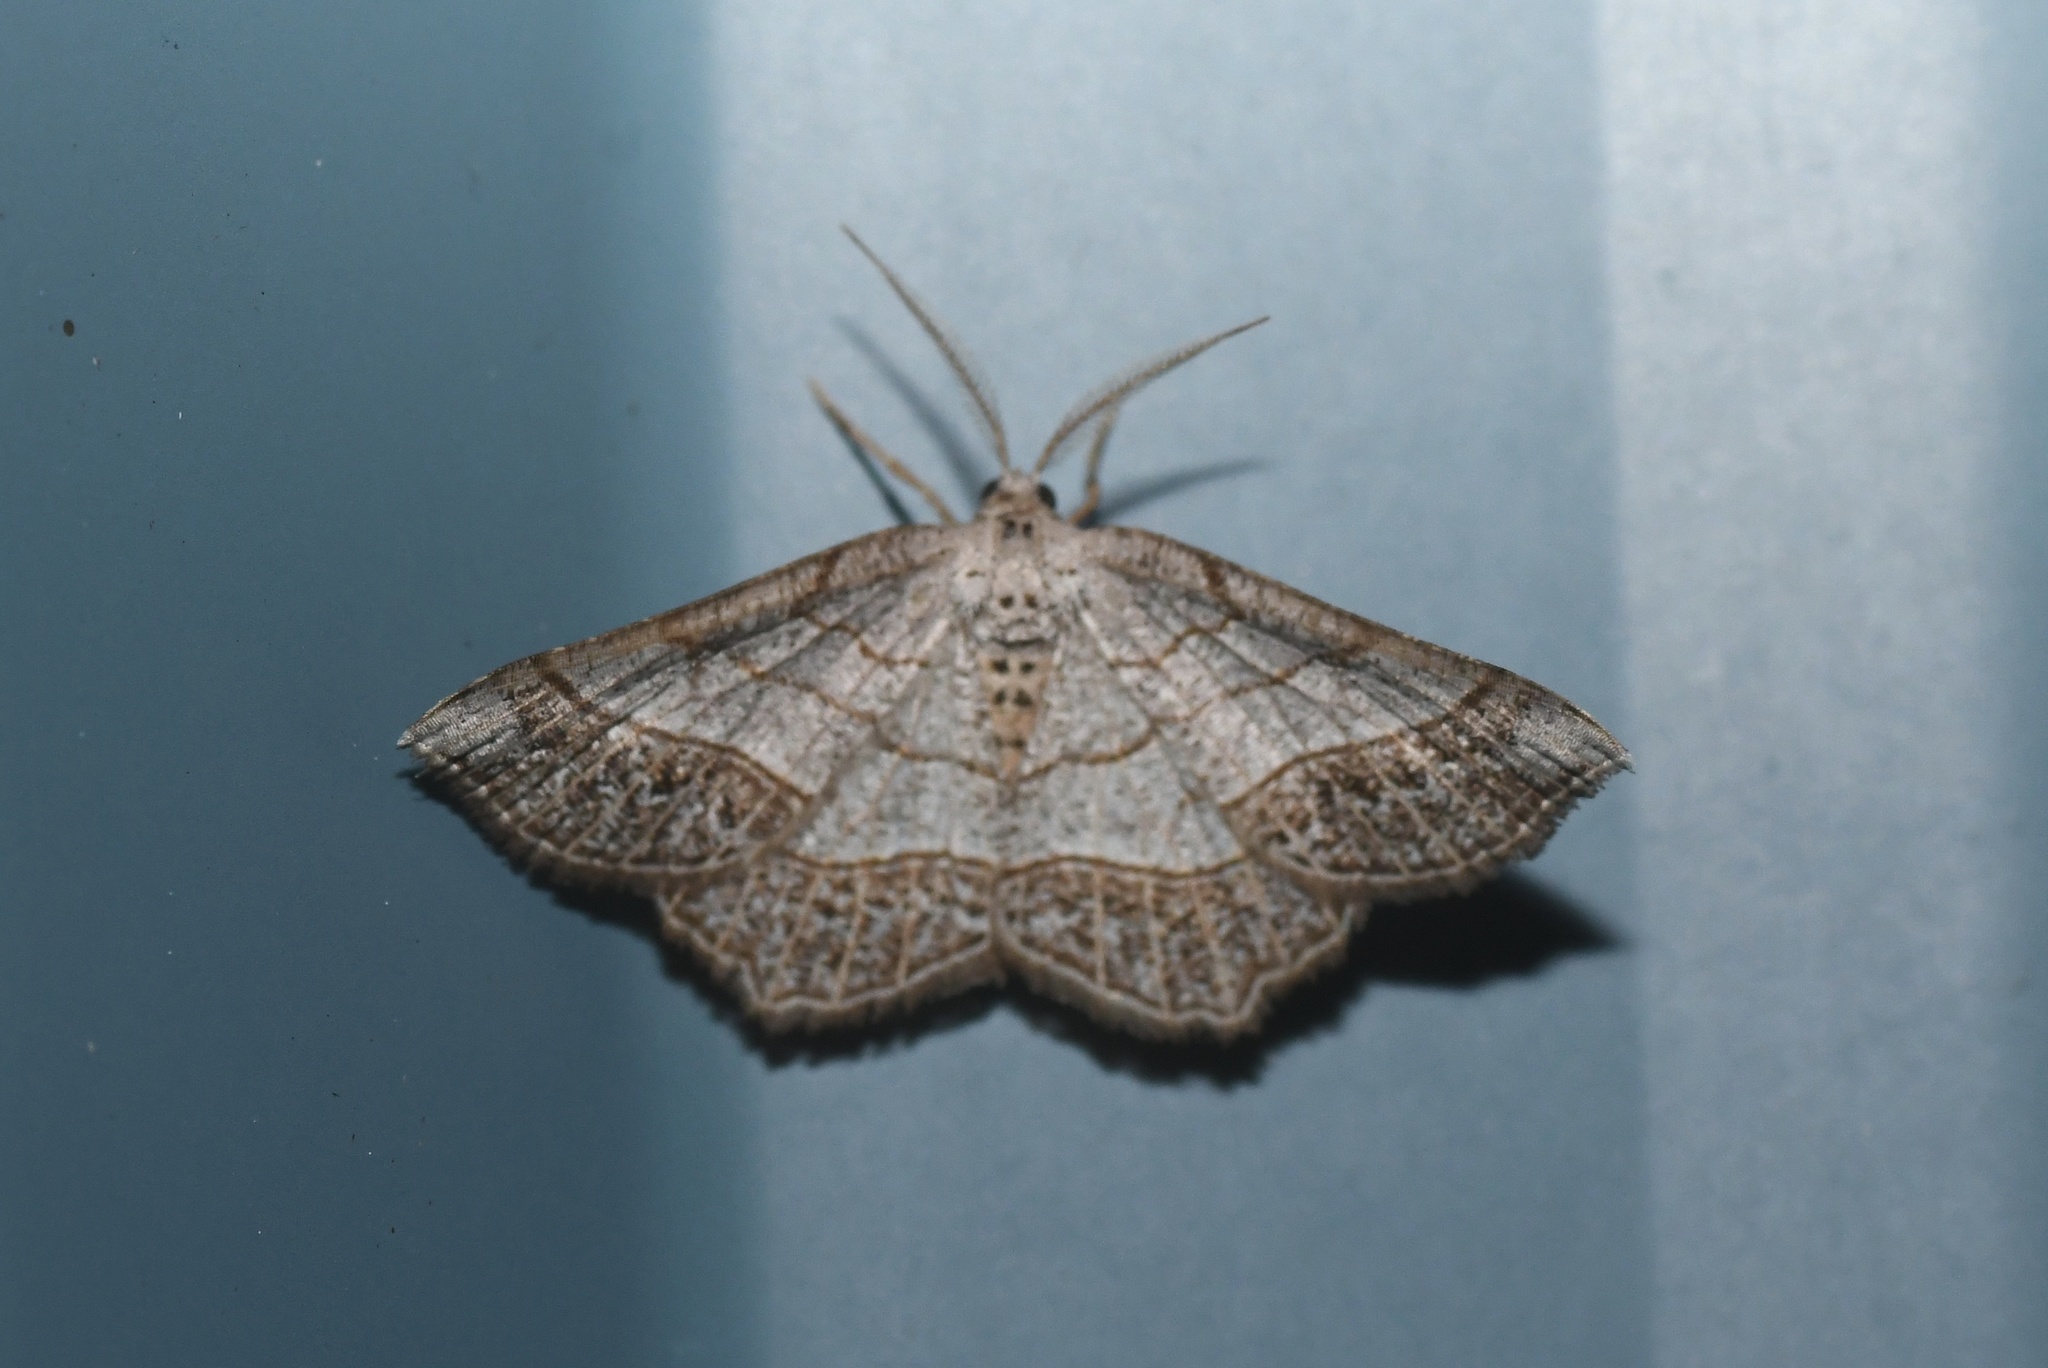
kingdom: Animalia
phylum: Arthropoda
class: Insecta
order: Lepidoptera
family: Geometridae
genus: Eumacaria
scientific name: Eumacaria madopata
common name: Brown-bordered geometer
